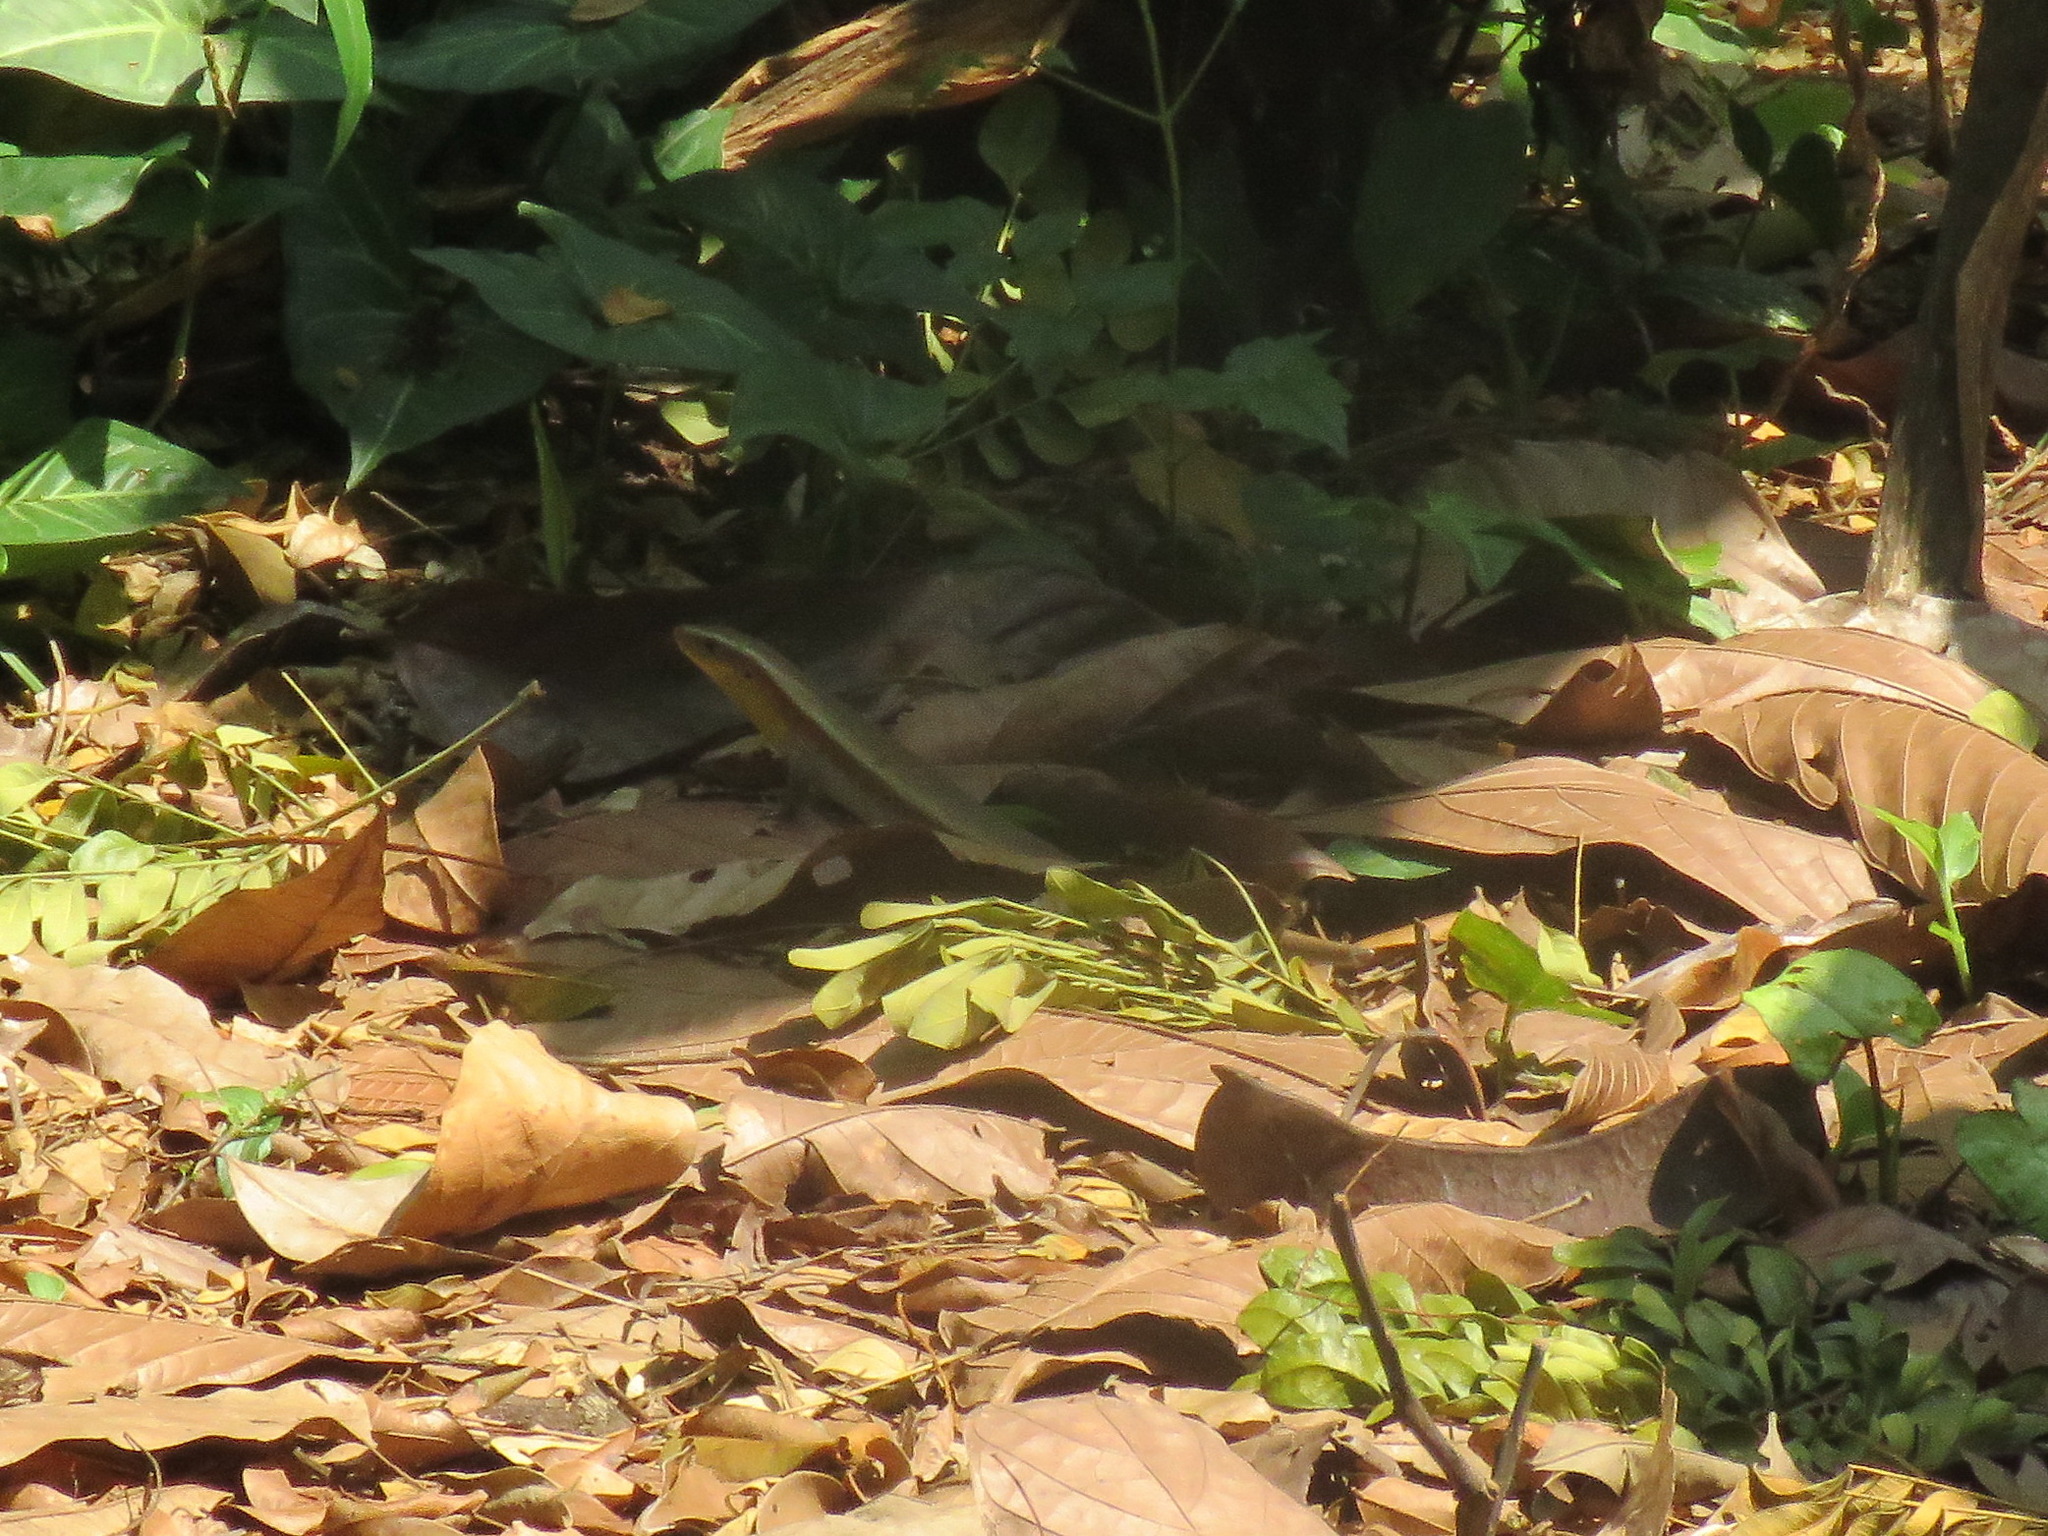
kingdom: Animalia
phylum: Chordata
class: Squamata
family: Scincidae
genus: Eutropis
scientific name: Eutropis multifasciata
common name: Common mabuya
